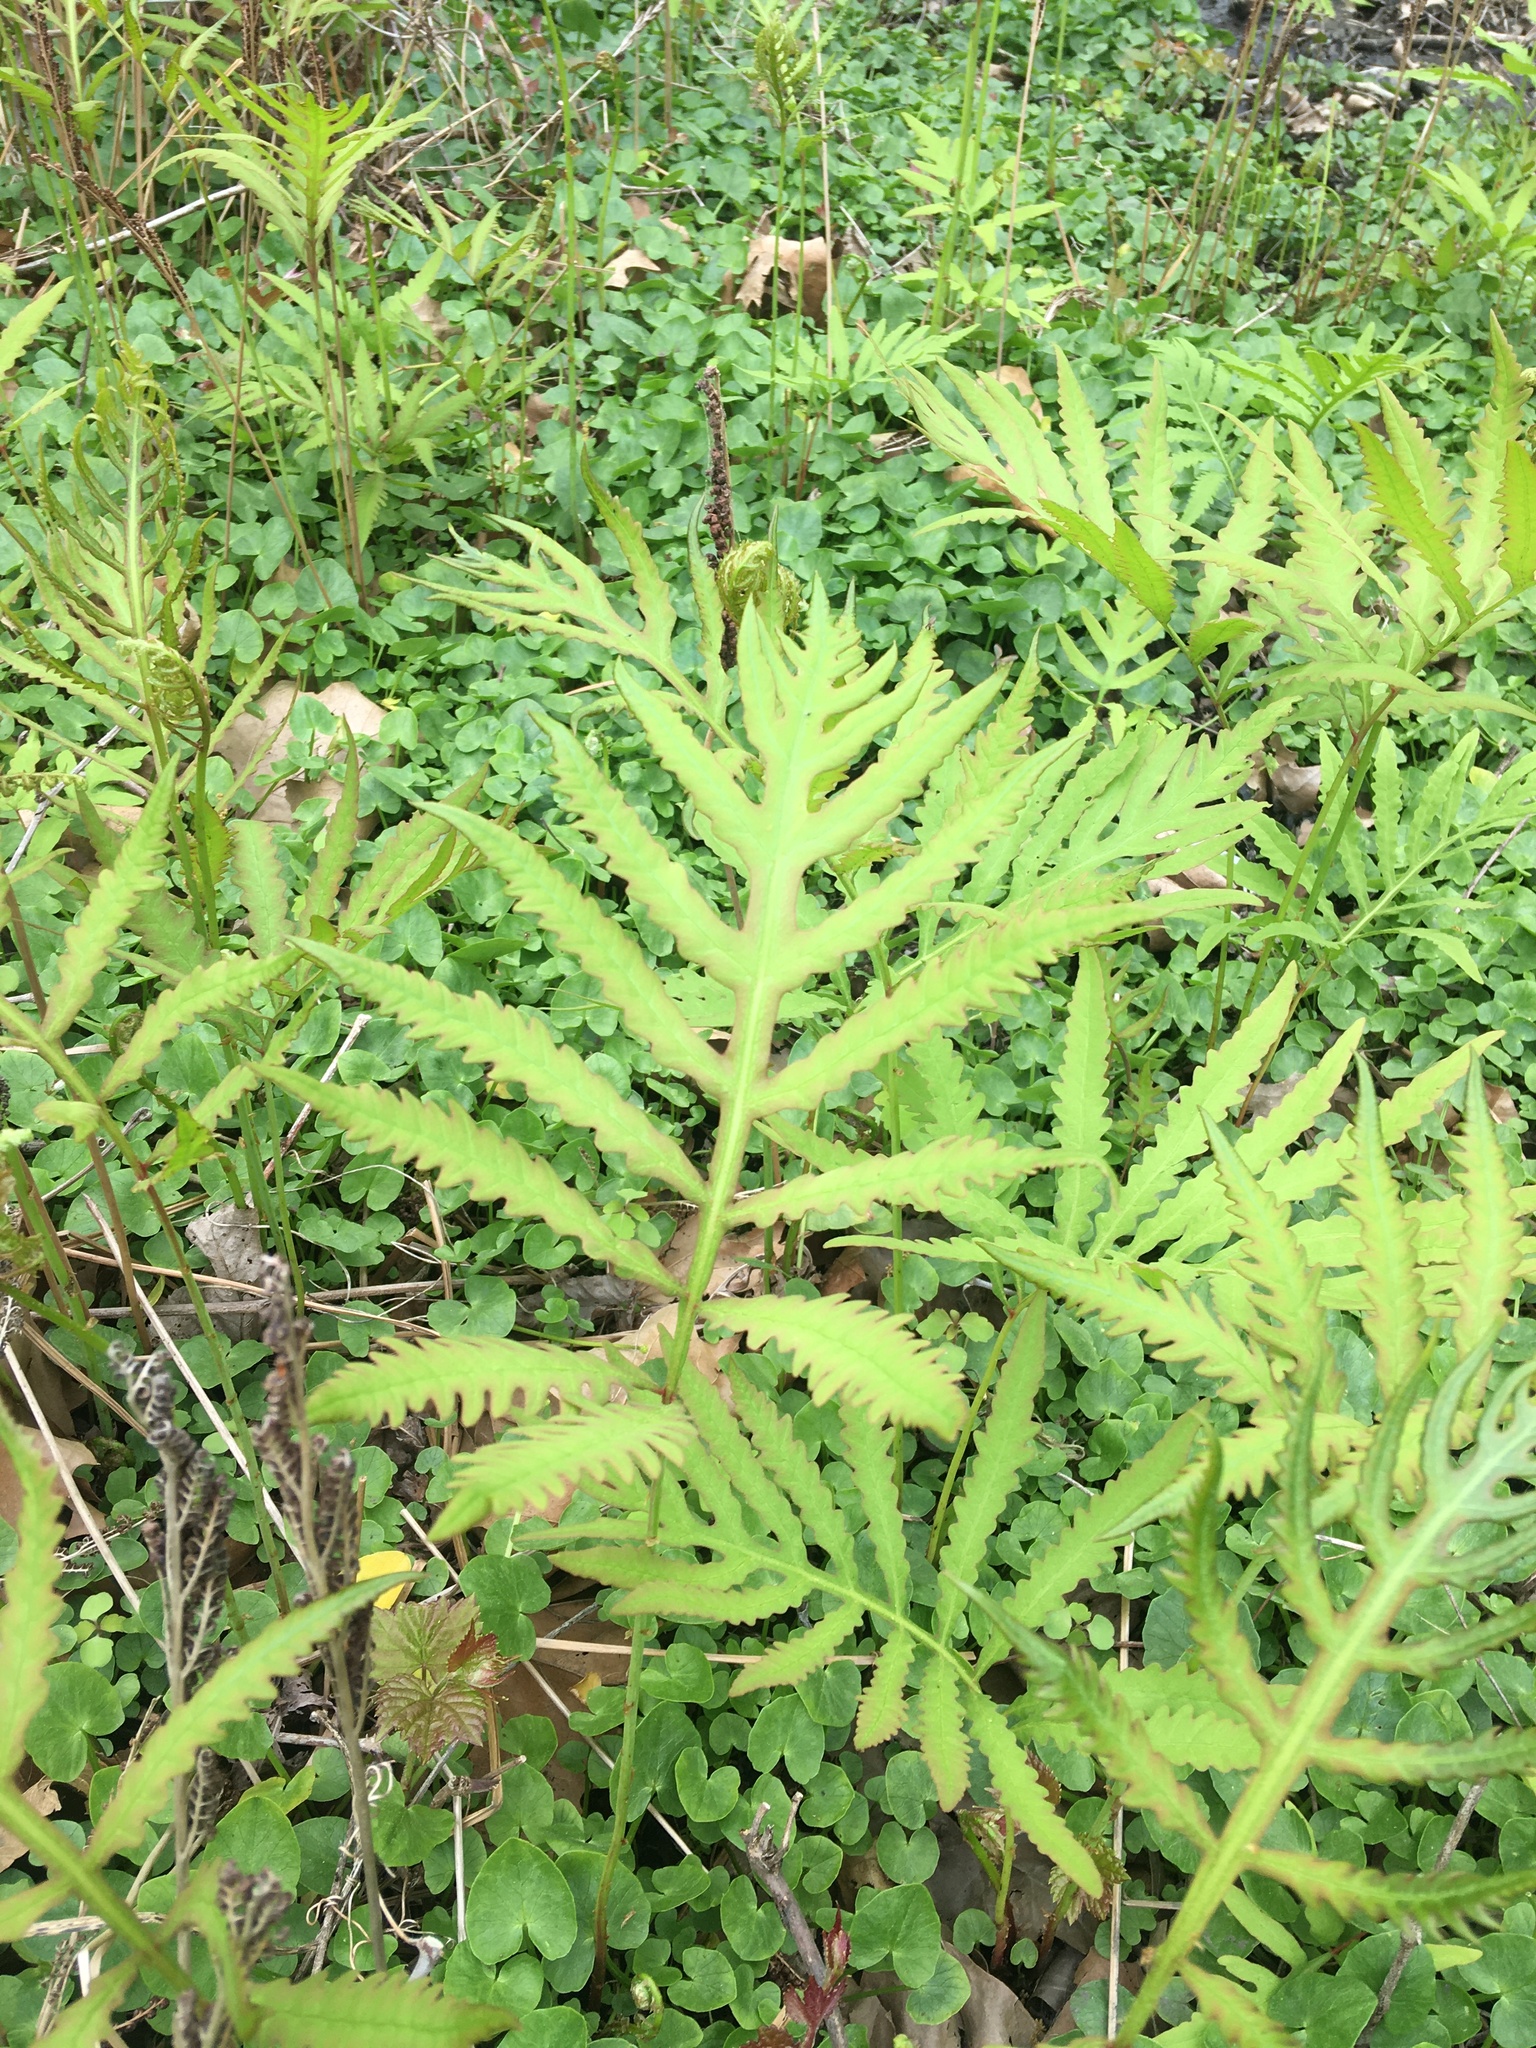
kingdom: Plantae
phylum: Tracheophyta
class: Polypodiopsida
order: Polypodiales
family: Onocleaceae
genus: Onoclea
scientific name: Onoclea sensibilis
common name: Sensitive fern
